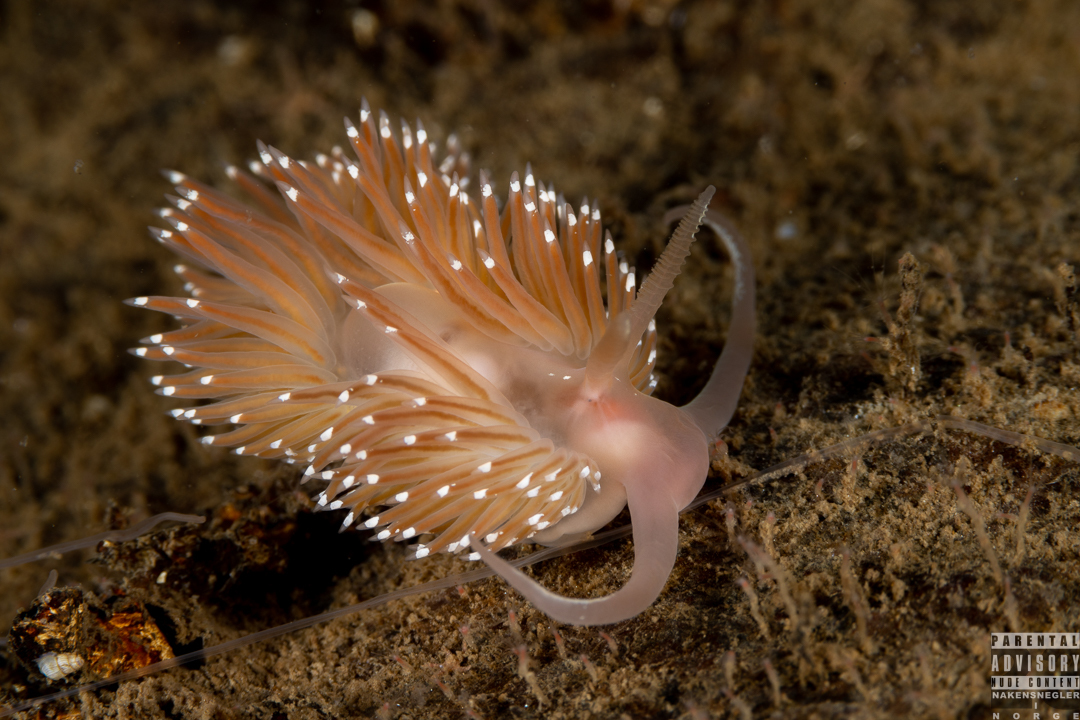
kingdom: Animalia
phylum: Mollusca
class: Gastropoda
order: Nudibranchia
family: Facelinidae
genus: Facelina
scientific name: Facelina bostoniensis
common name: Boston facelina
